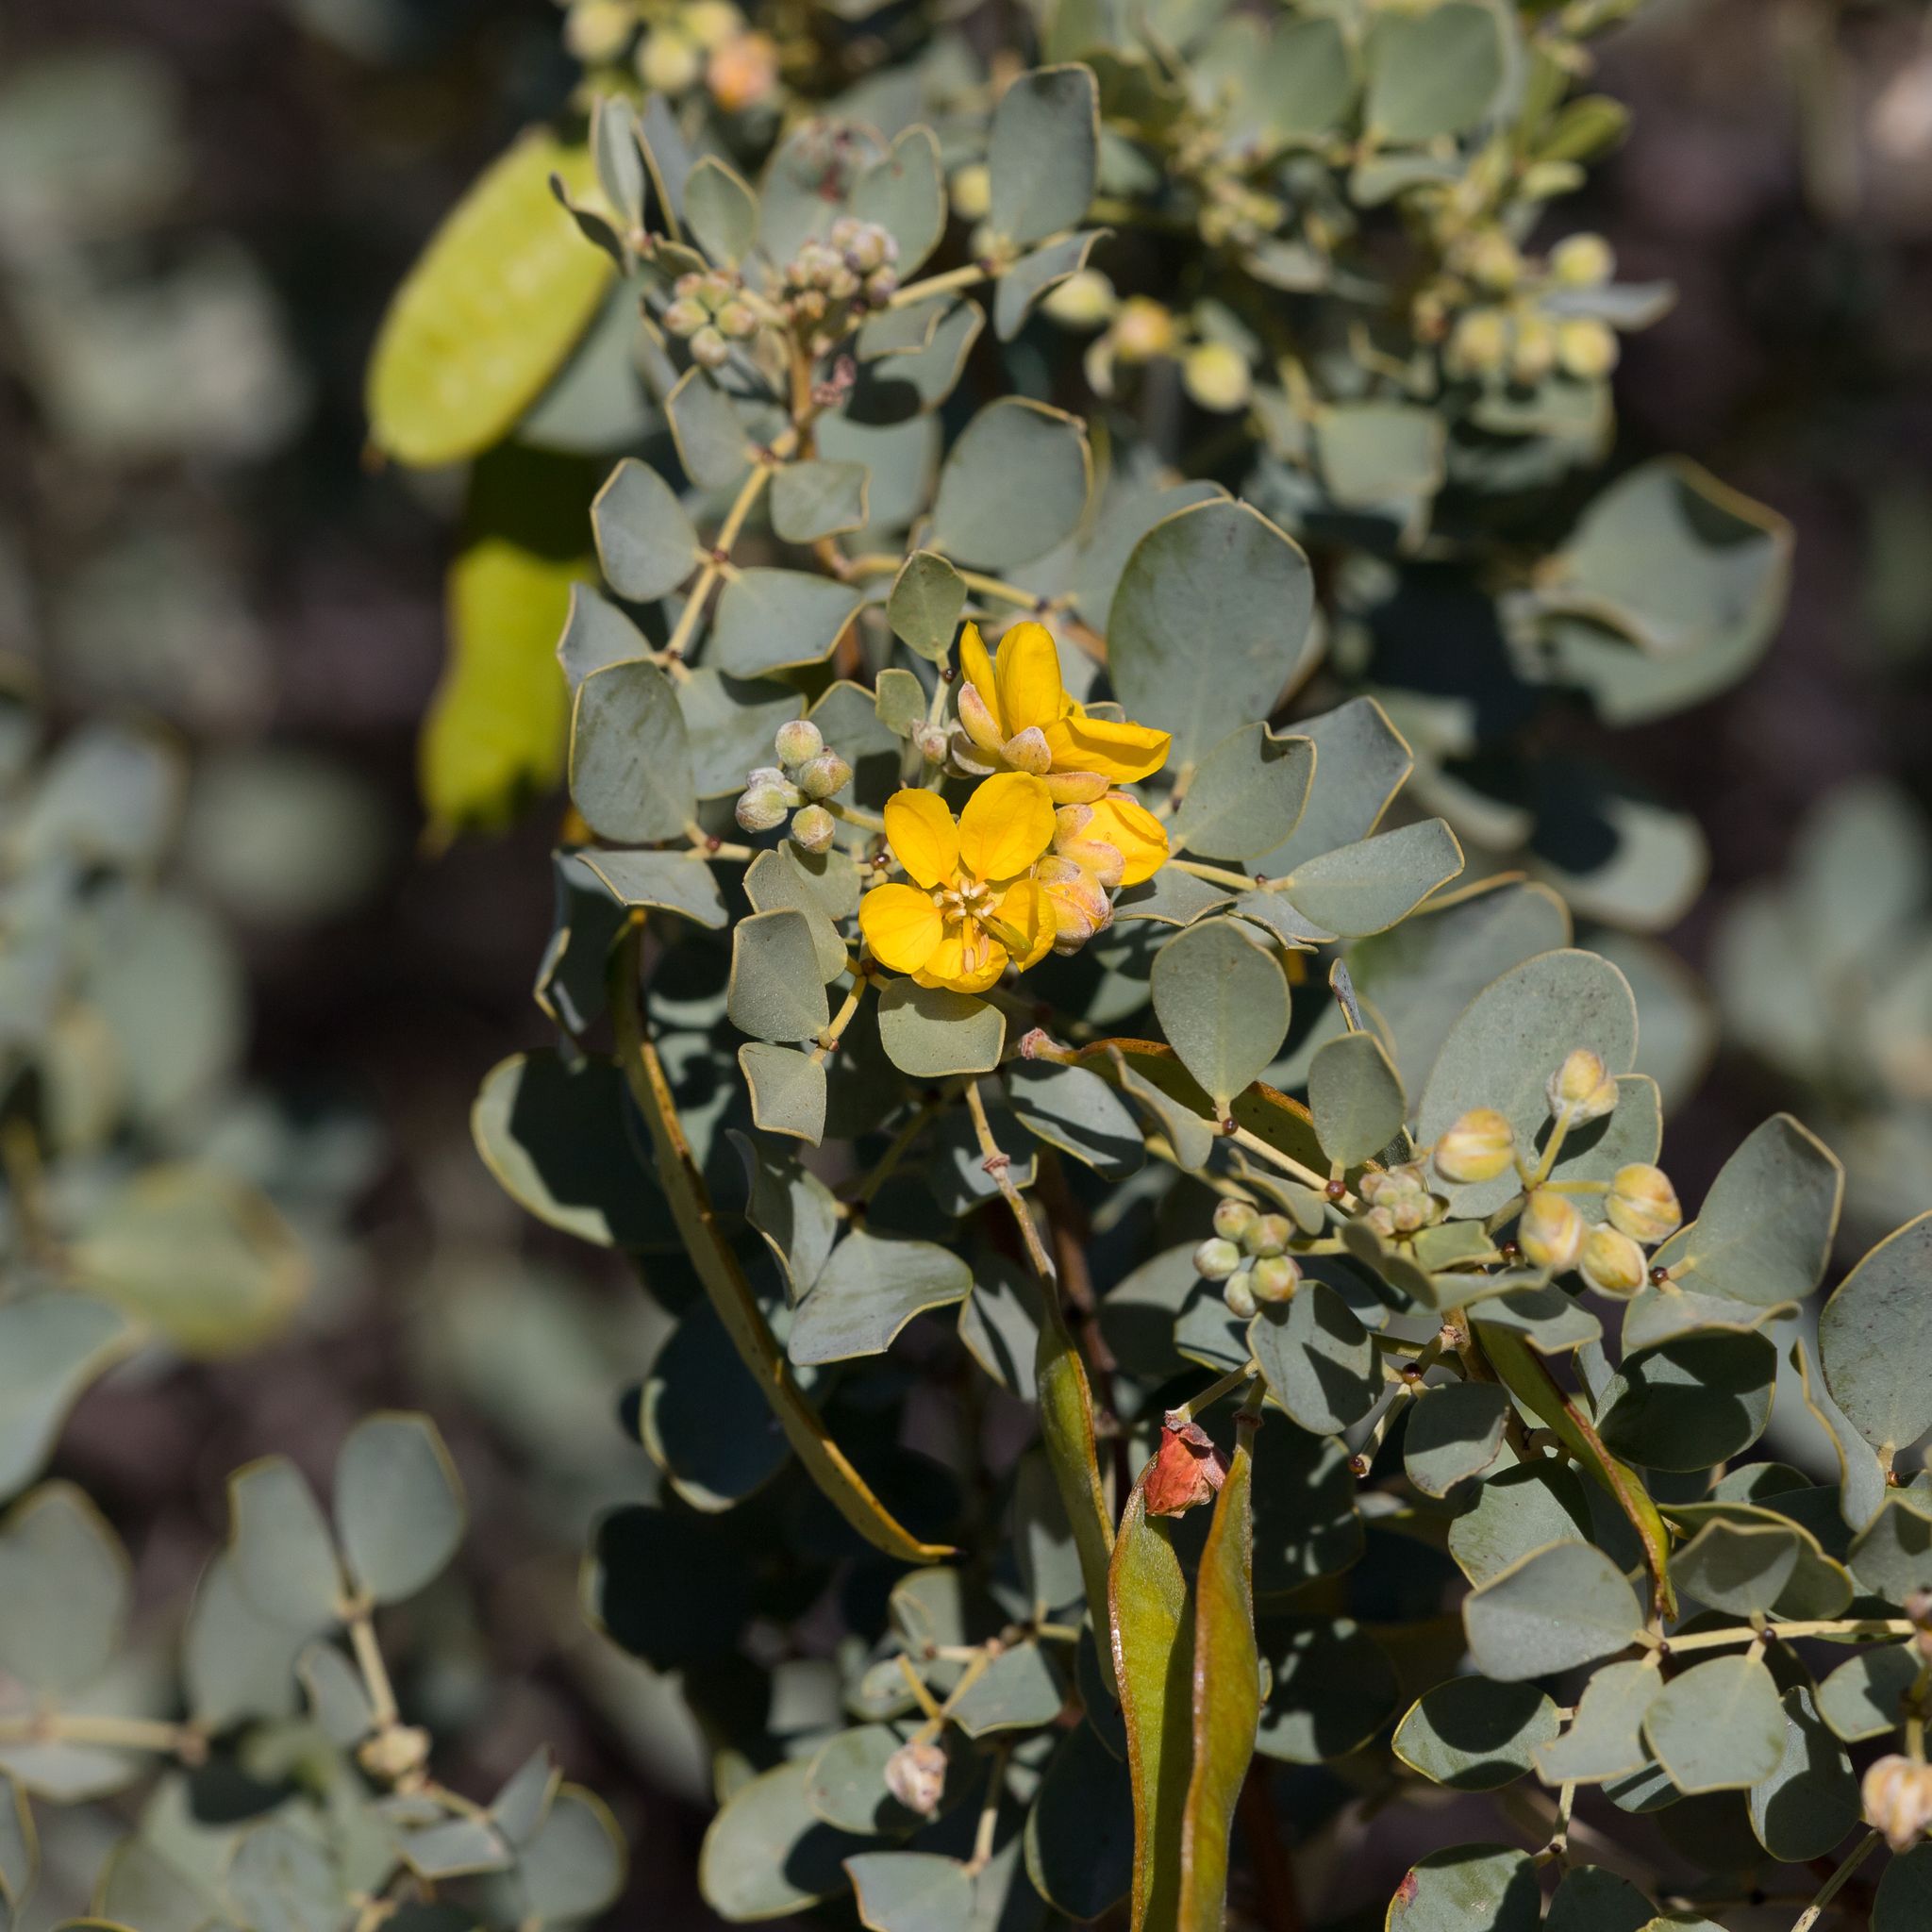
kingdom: Plantae
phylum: Tracheophyta
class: Magnoliopsida
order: Fabales
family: Fabaceae
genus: Senna
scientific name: Senna artemisioides
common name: Burnt-leaved acacia
